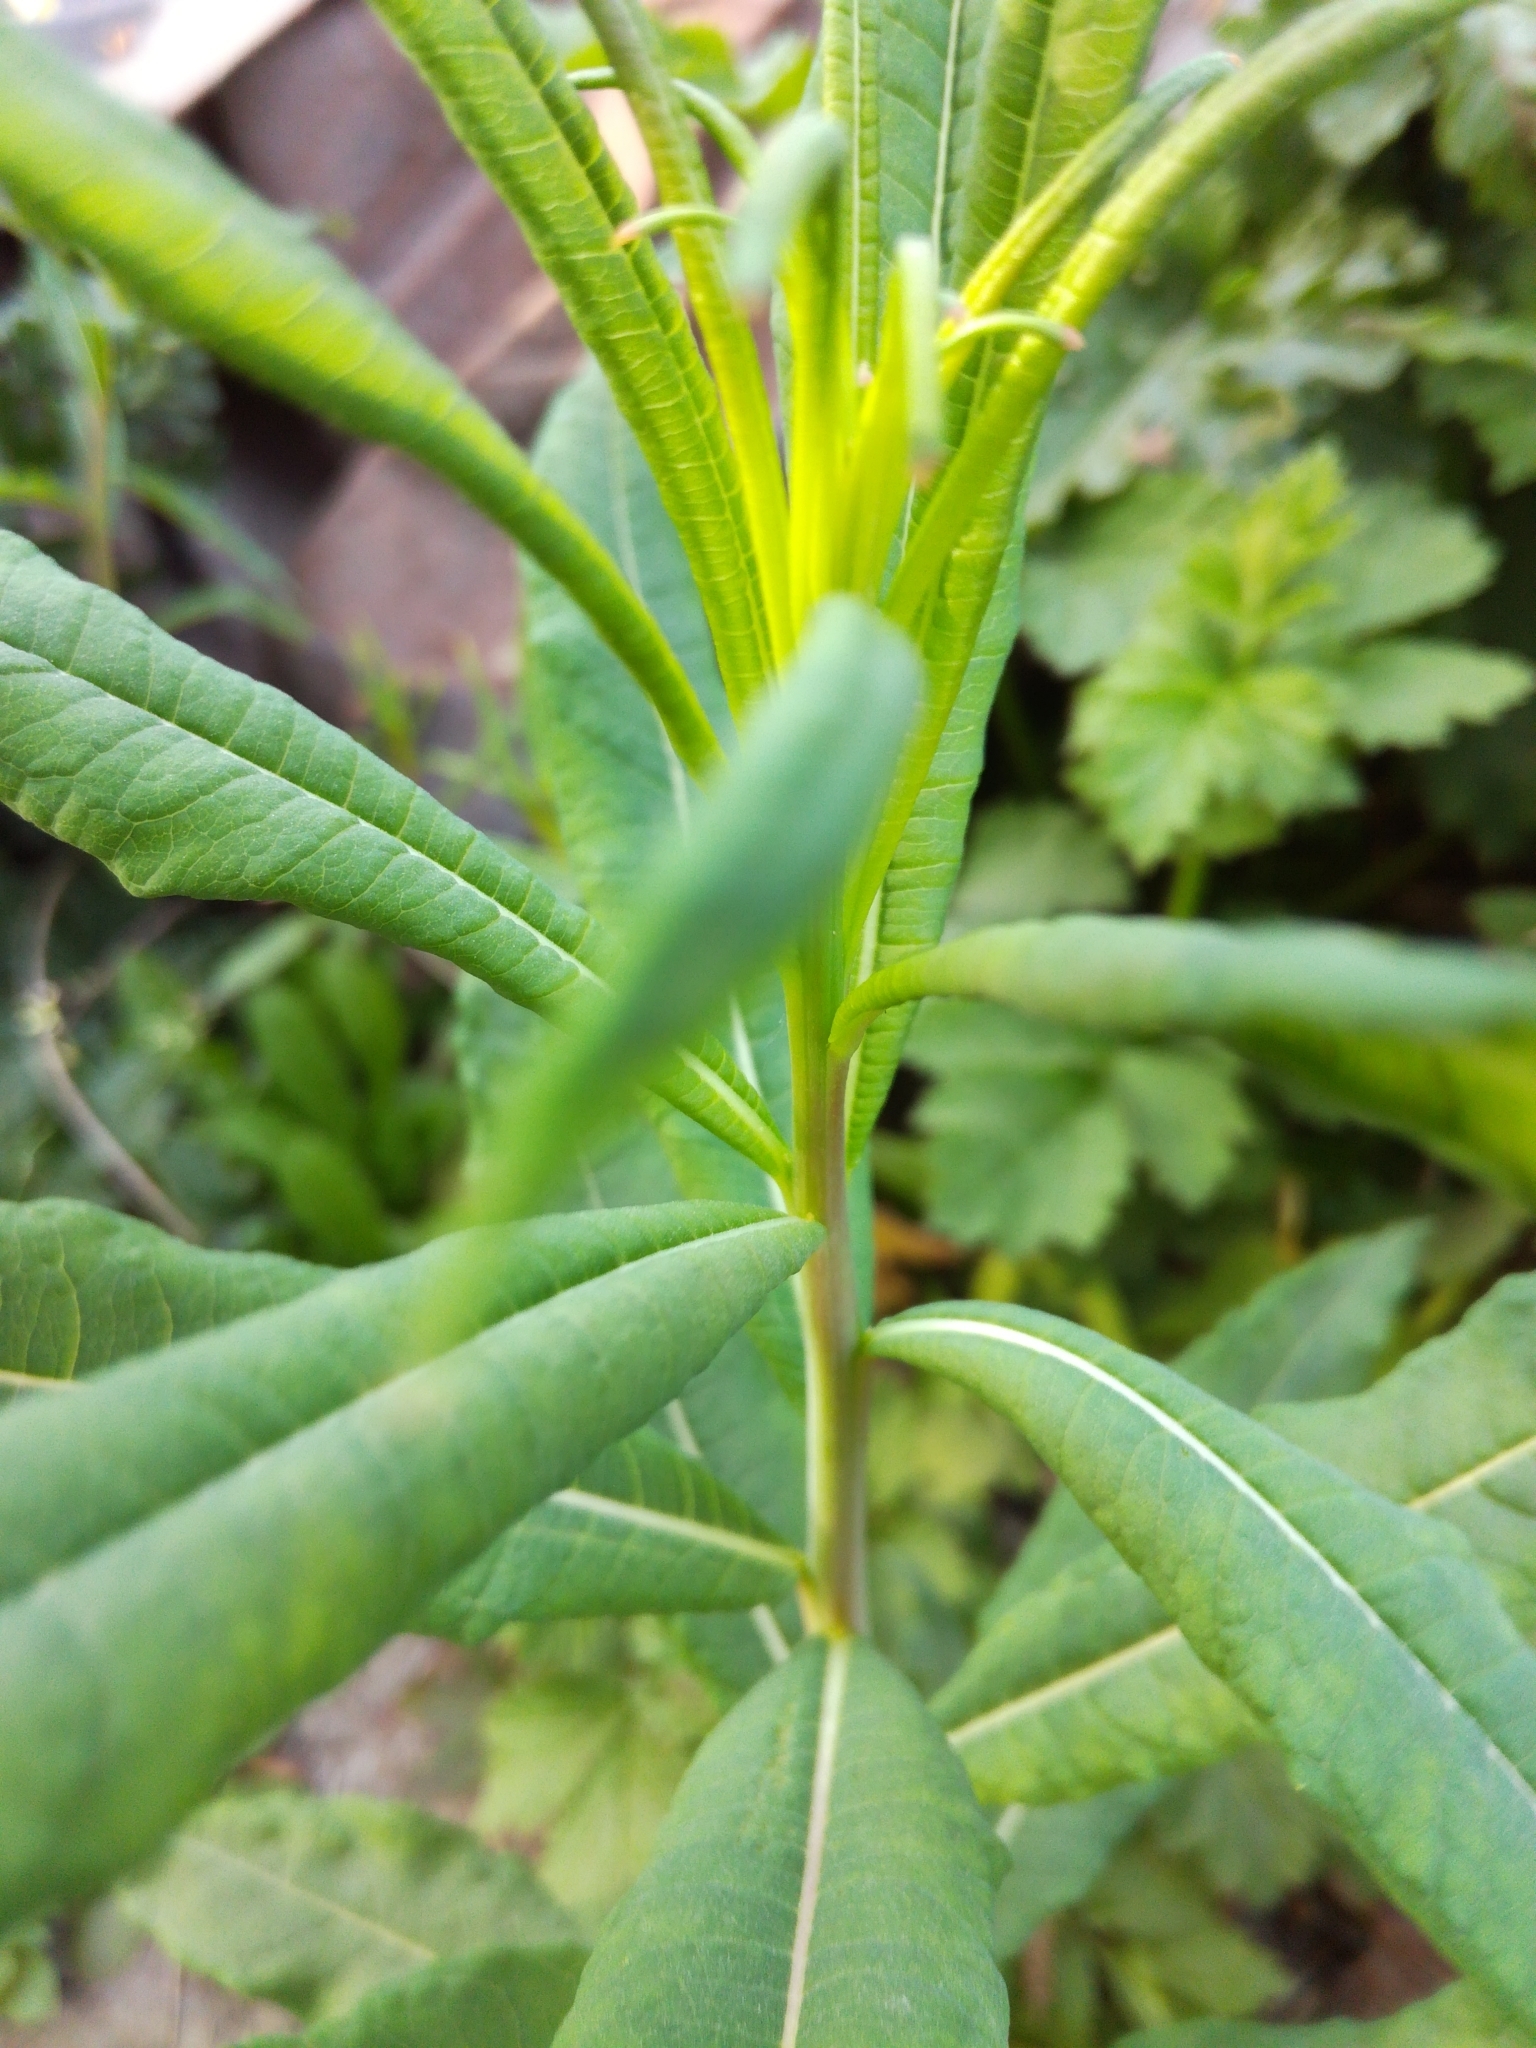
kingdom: Plantae
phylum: Tracheophyta
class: Magnoliopsida
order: Myrtales
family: Onagraceae
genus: Chamaenerion
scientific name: Chamaenerion angustifolium
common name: Fireweed
